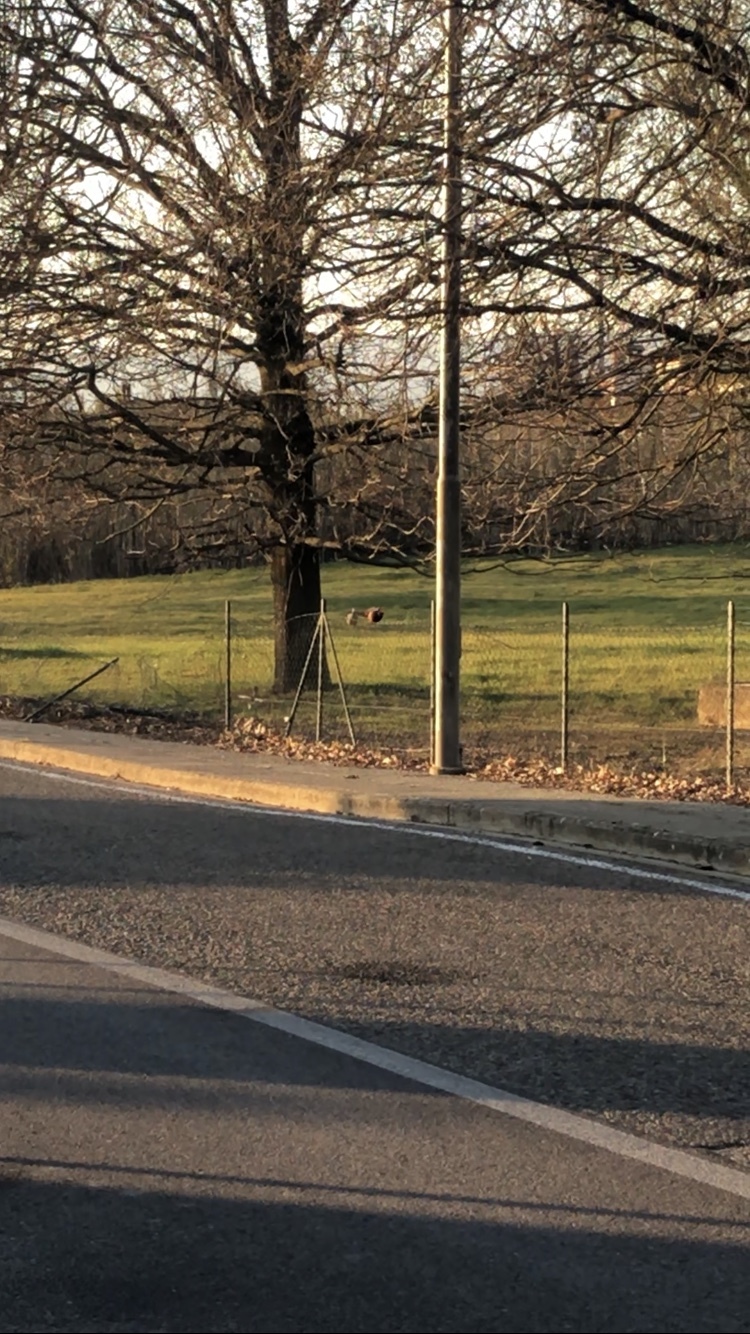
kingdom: Animalia
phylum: Chordata
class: Aves
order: Galliformes
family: Phasianidae
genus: Phasianus
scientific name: Phasianus colchicus
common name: Common pheasant
